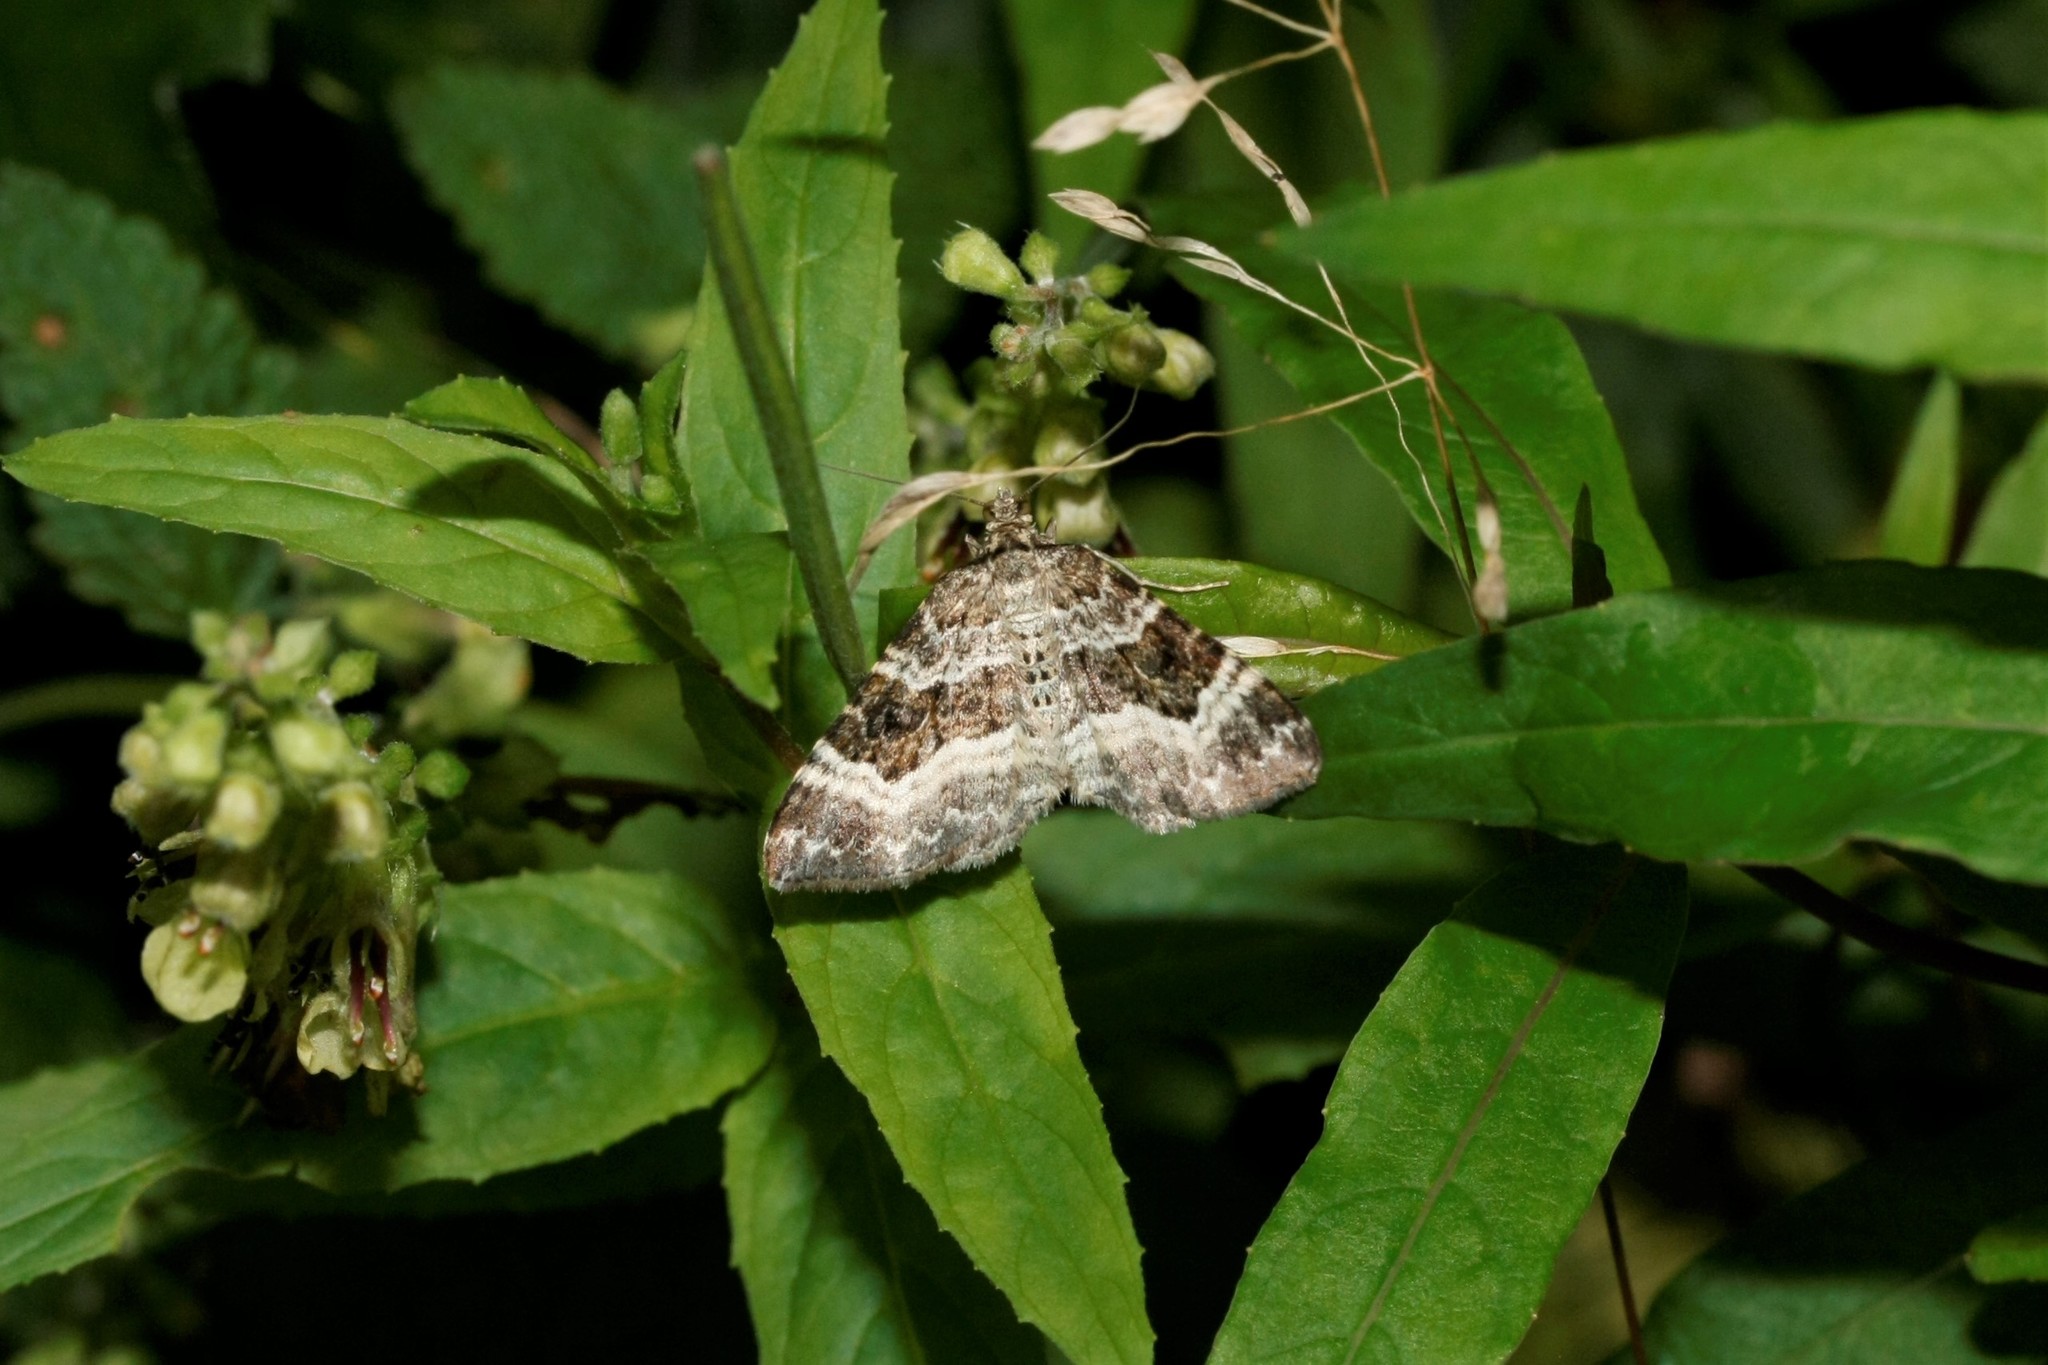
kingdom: Animalia
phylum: Arthropoda
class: Insecta
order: Lepidoptera
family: Geometridae
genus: Epirrhoe
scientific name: Epirrhoe alternata
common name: Common carpet
